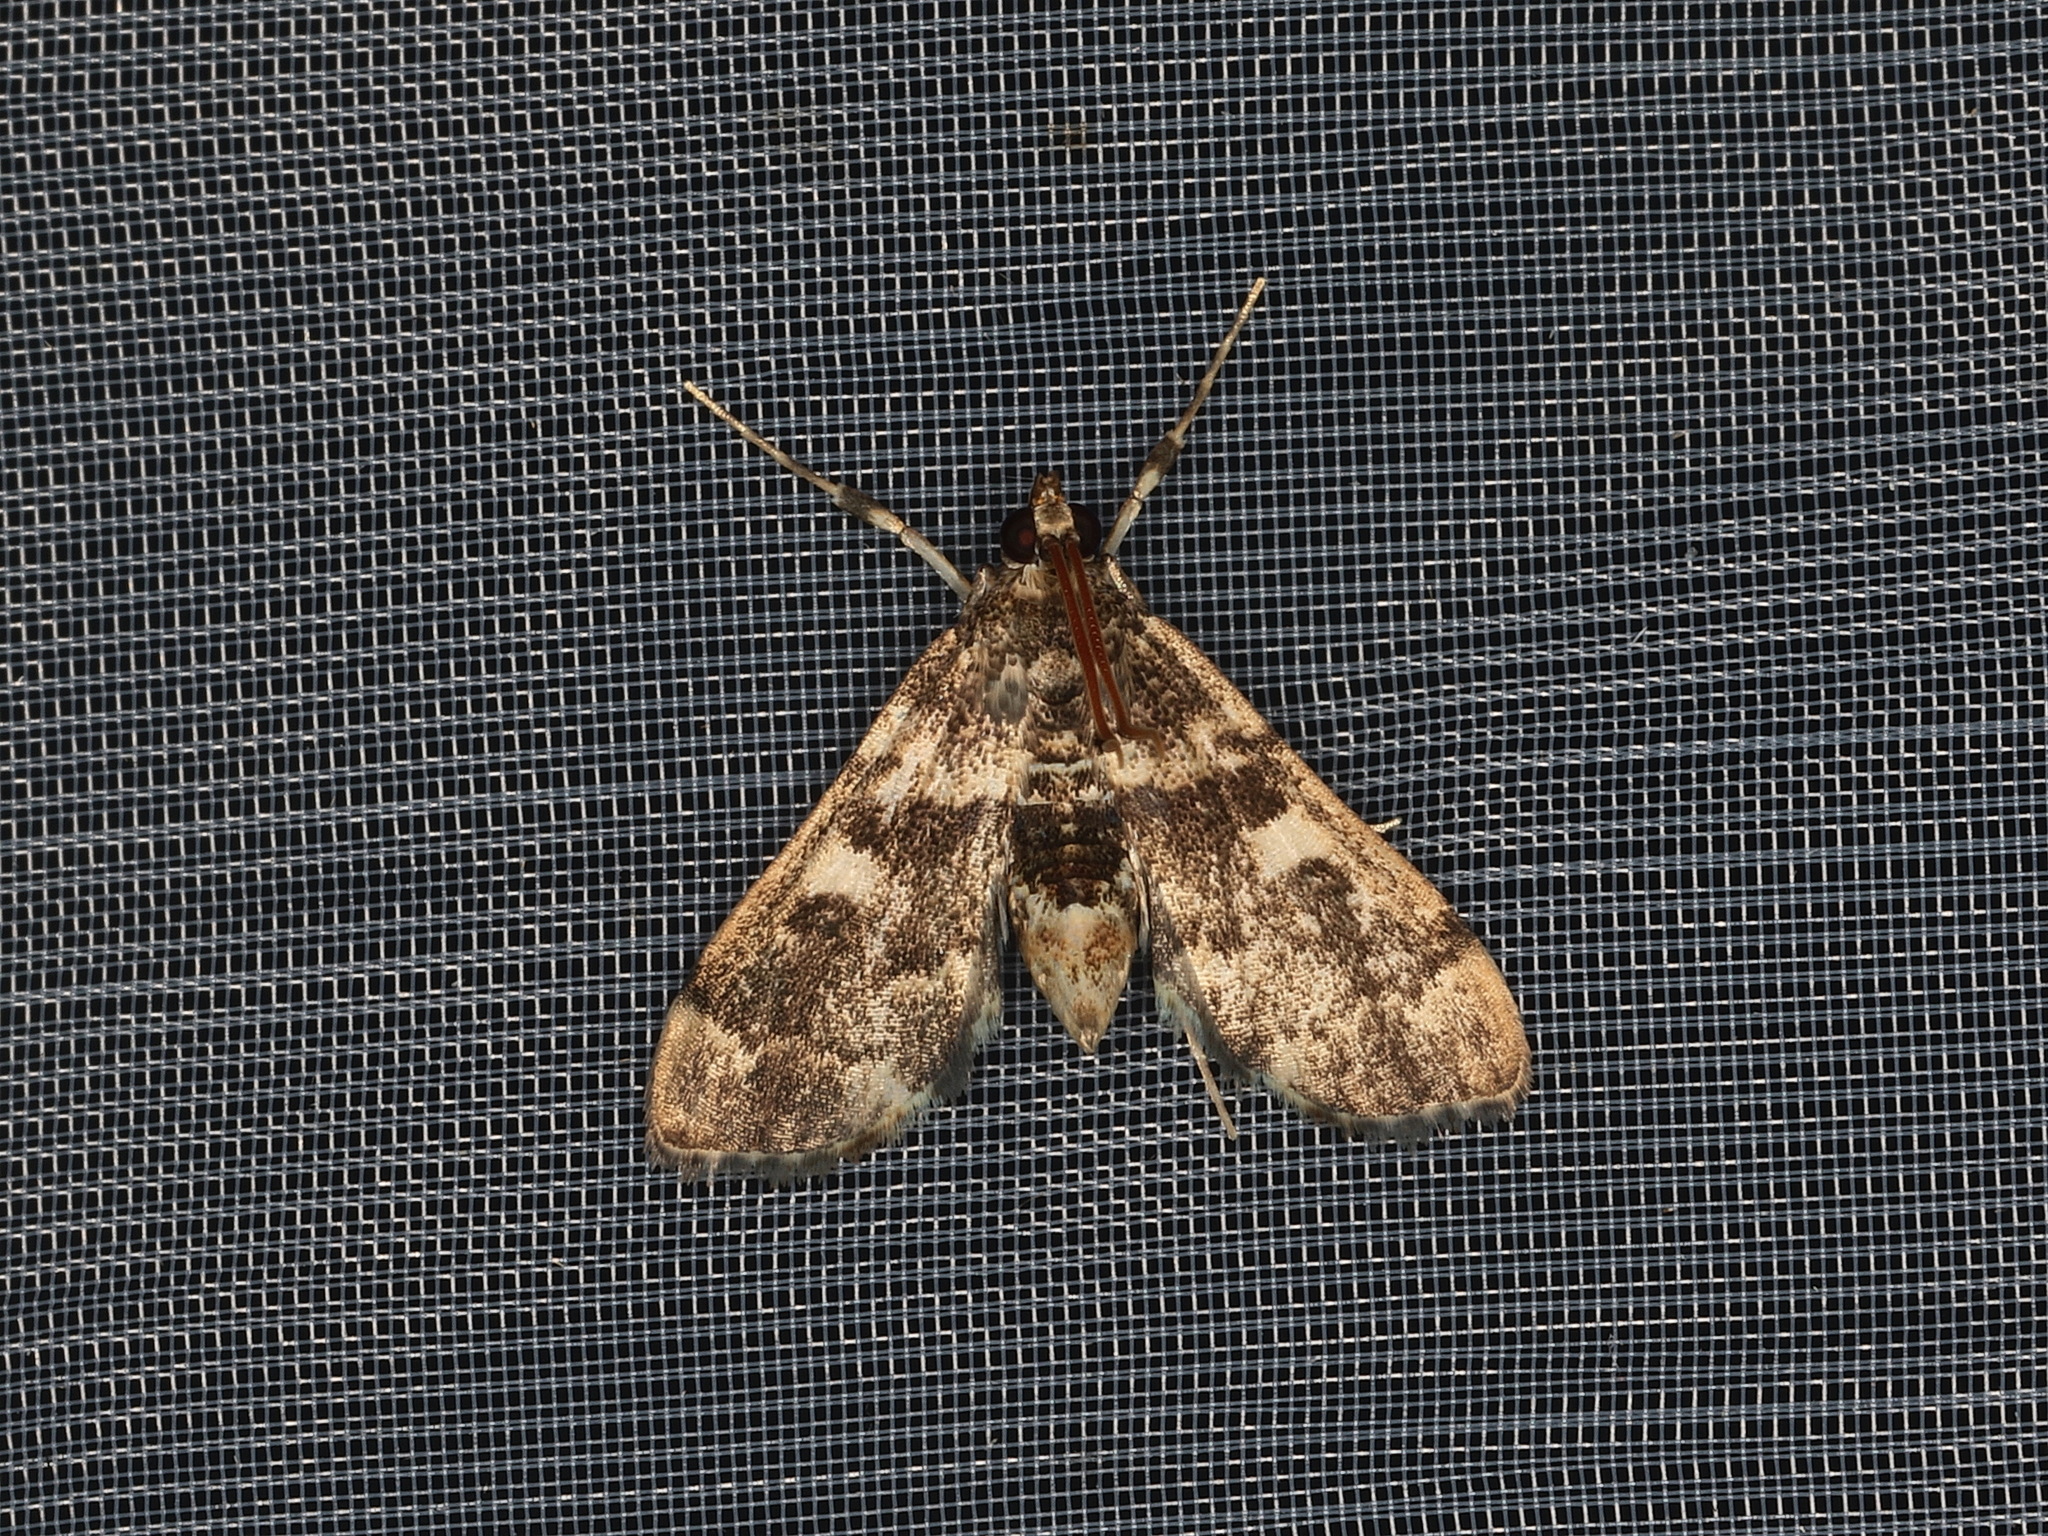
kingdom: Animalia
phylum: Arthropoda
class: Insecta
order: Lepidoptera
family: Crambidae
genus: Nacoleia
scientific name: Nacoleia rhoeoalis
